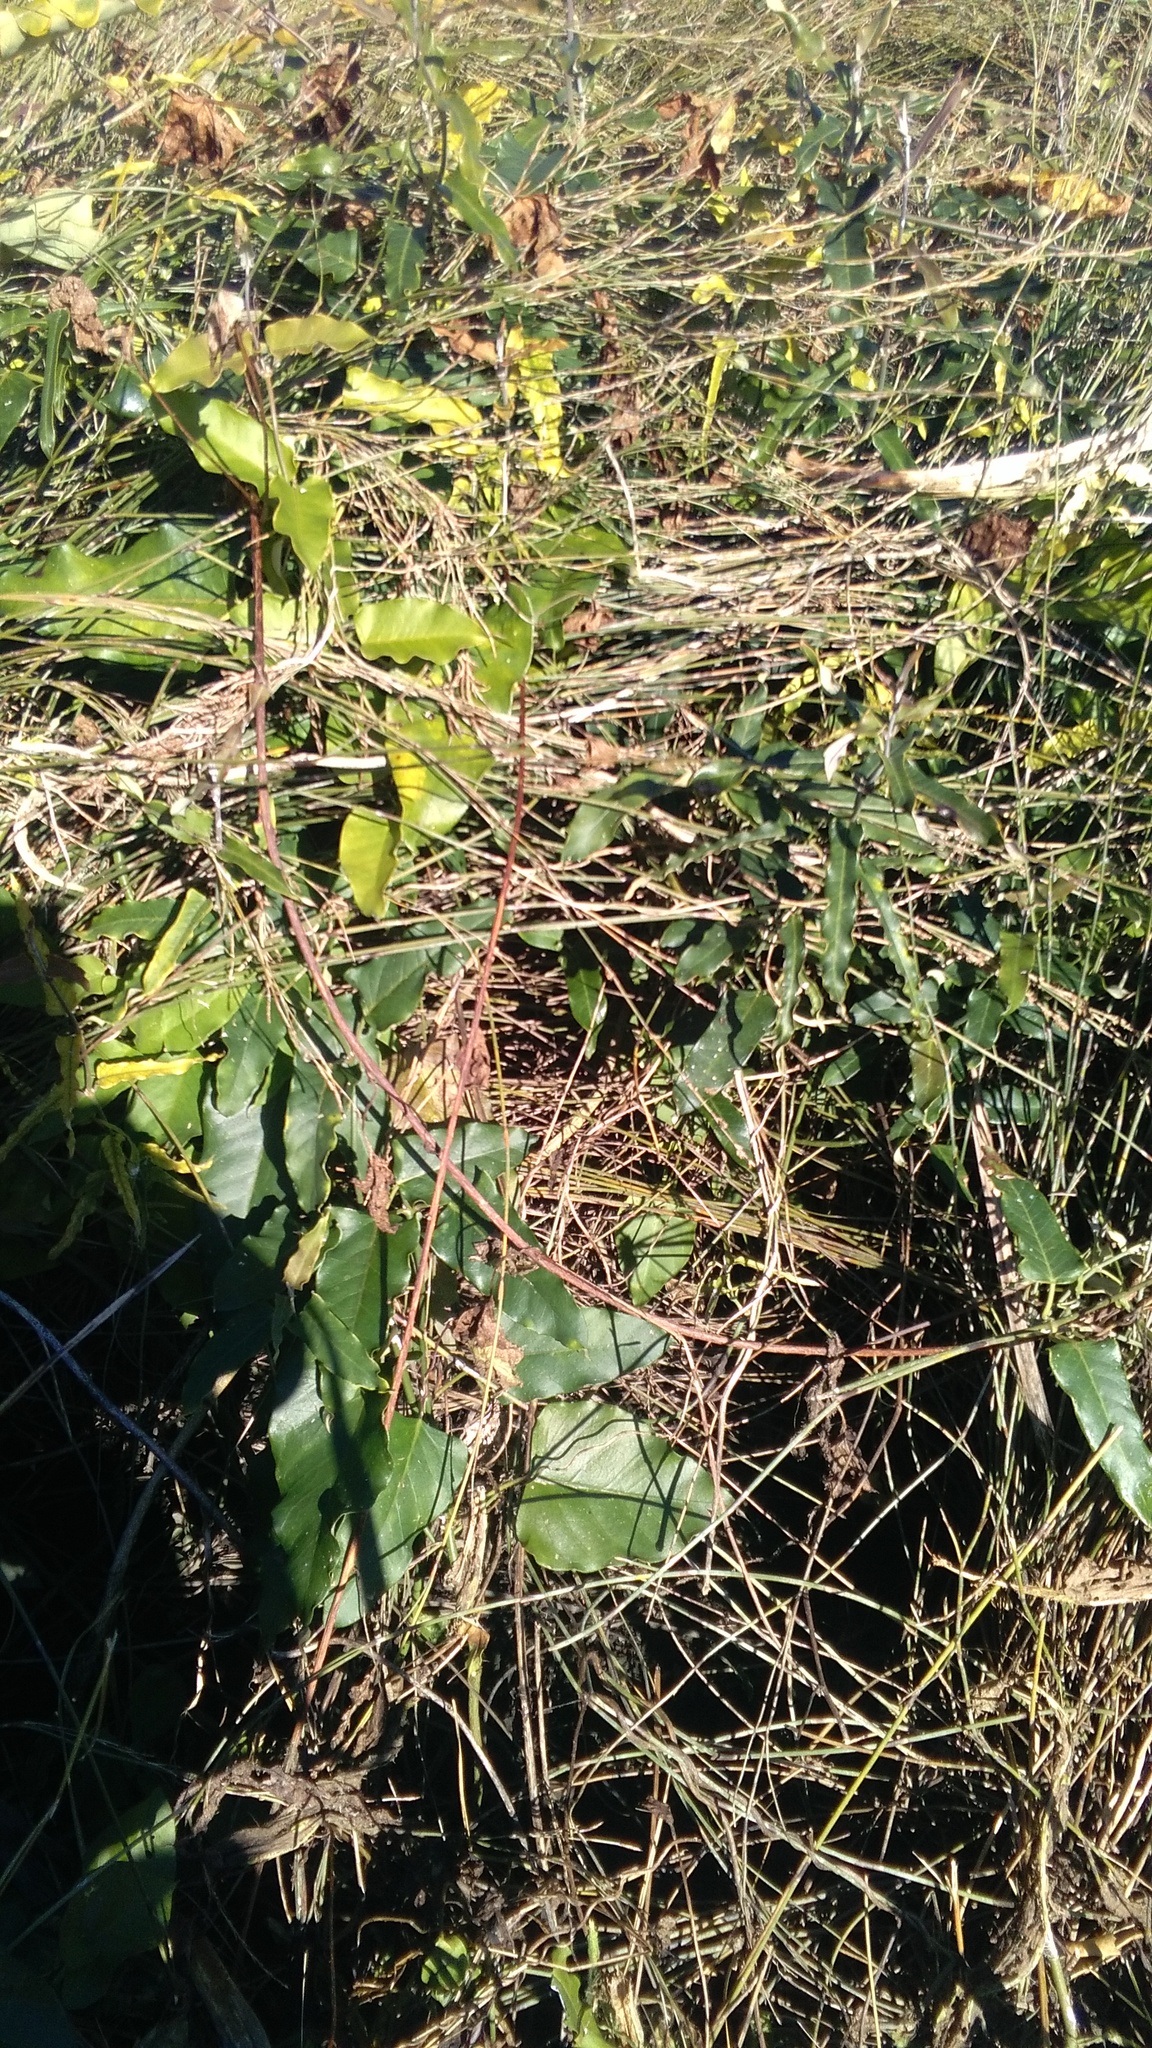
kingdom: Plantae
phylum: Tracheophyta
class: Magnoliopsida
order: Gentianales
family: Apocynaceae
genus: Araujia
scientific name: Araujia sericifera
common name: White bladderflower
